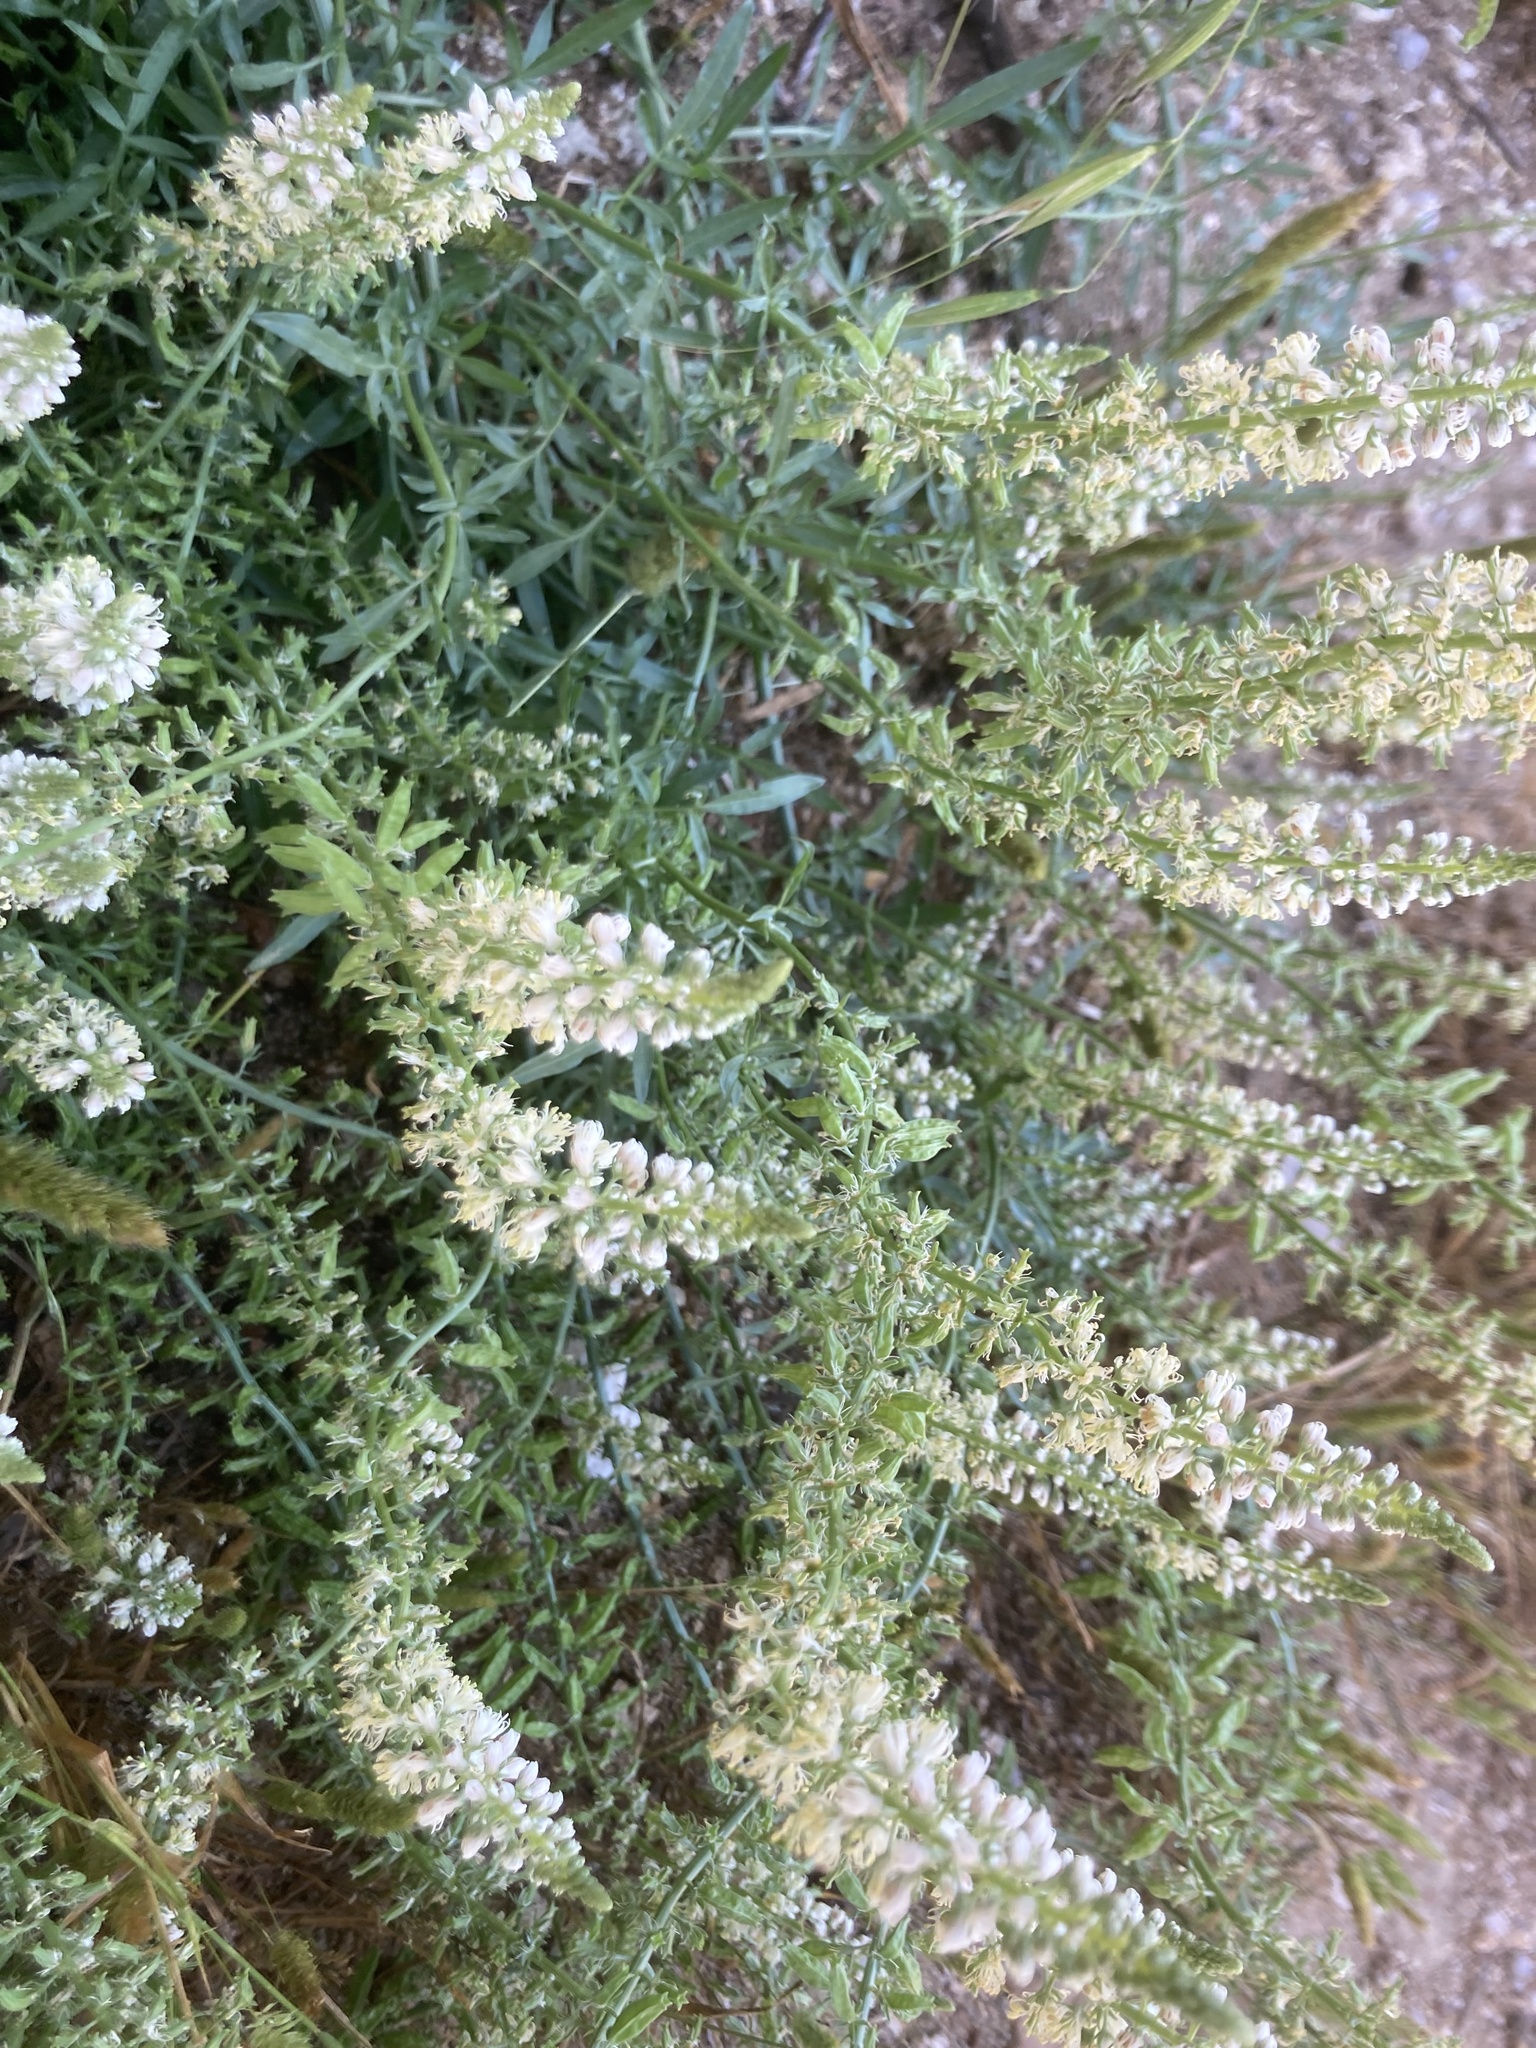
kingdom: Plantae
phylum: Tracheophyta
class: Magnoliopsida
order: Brassicales
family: Resedaceae
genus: Reseda
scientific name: Reseda alba
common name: White mignonette
